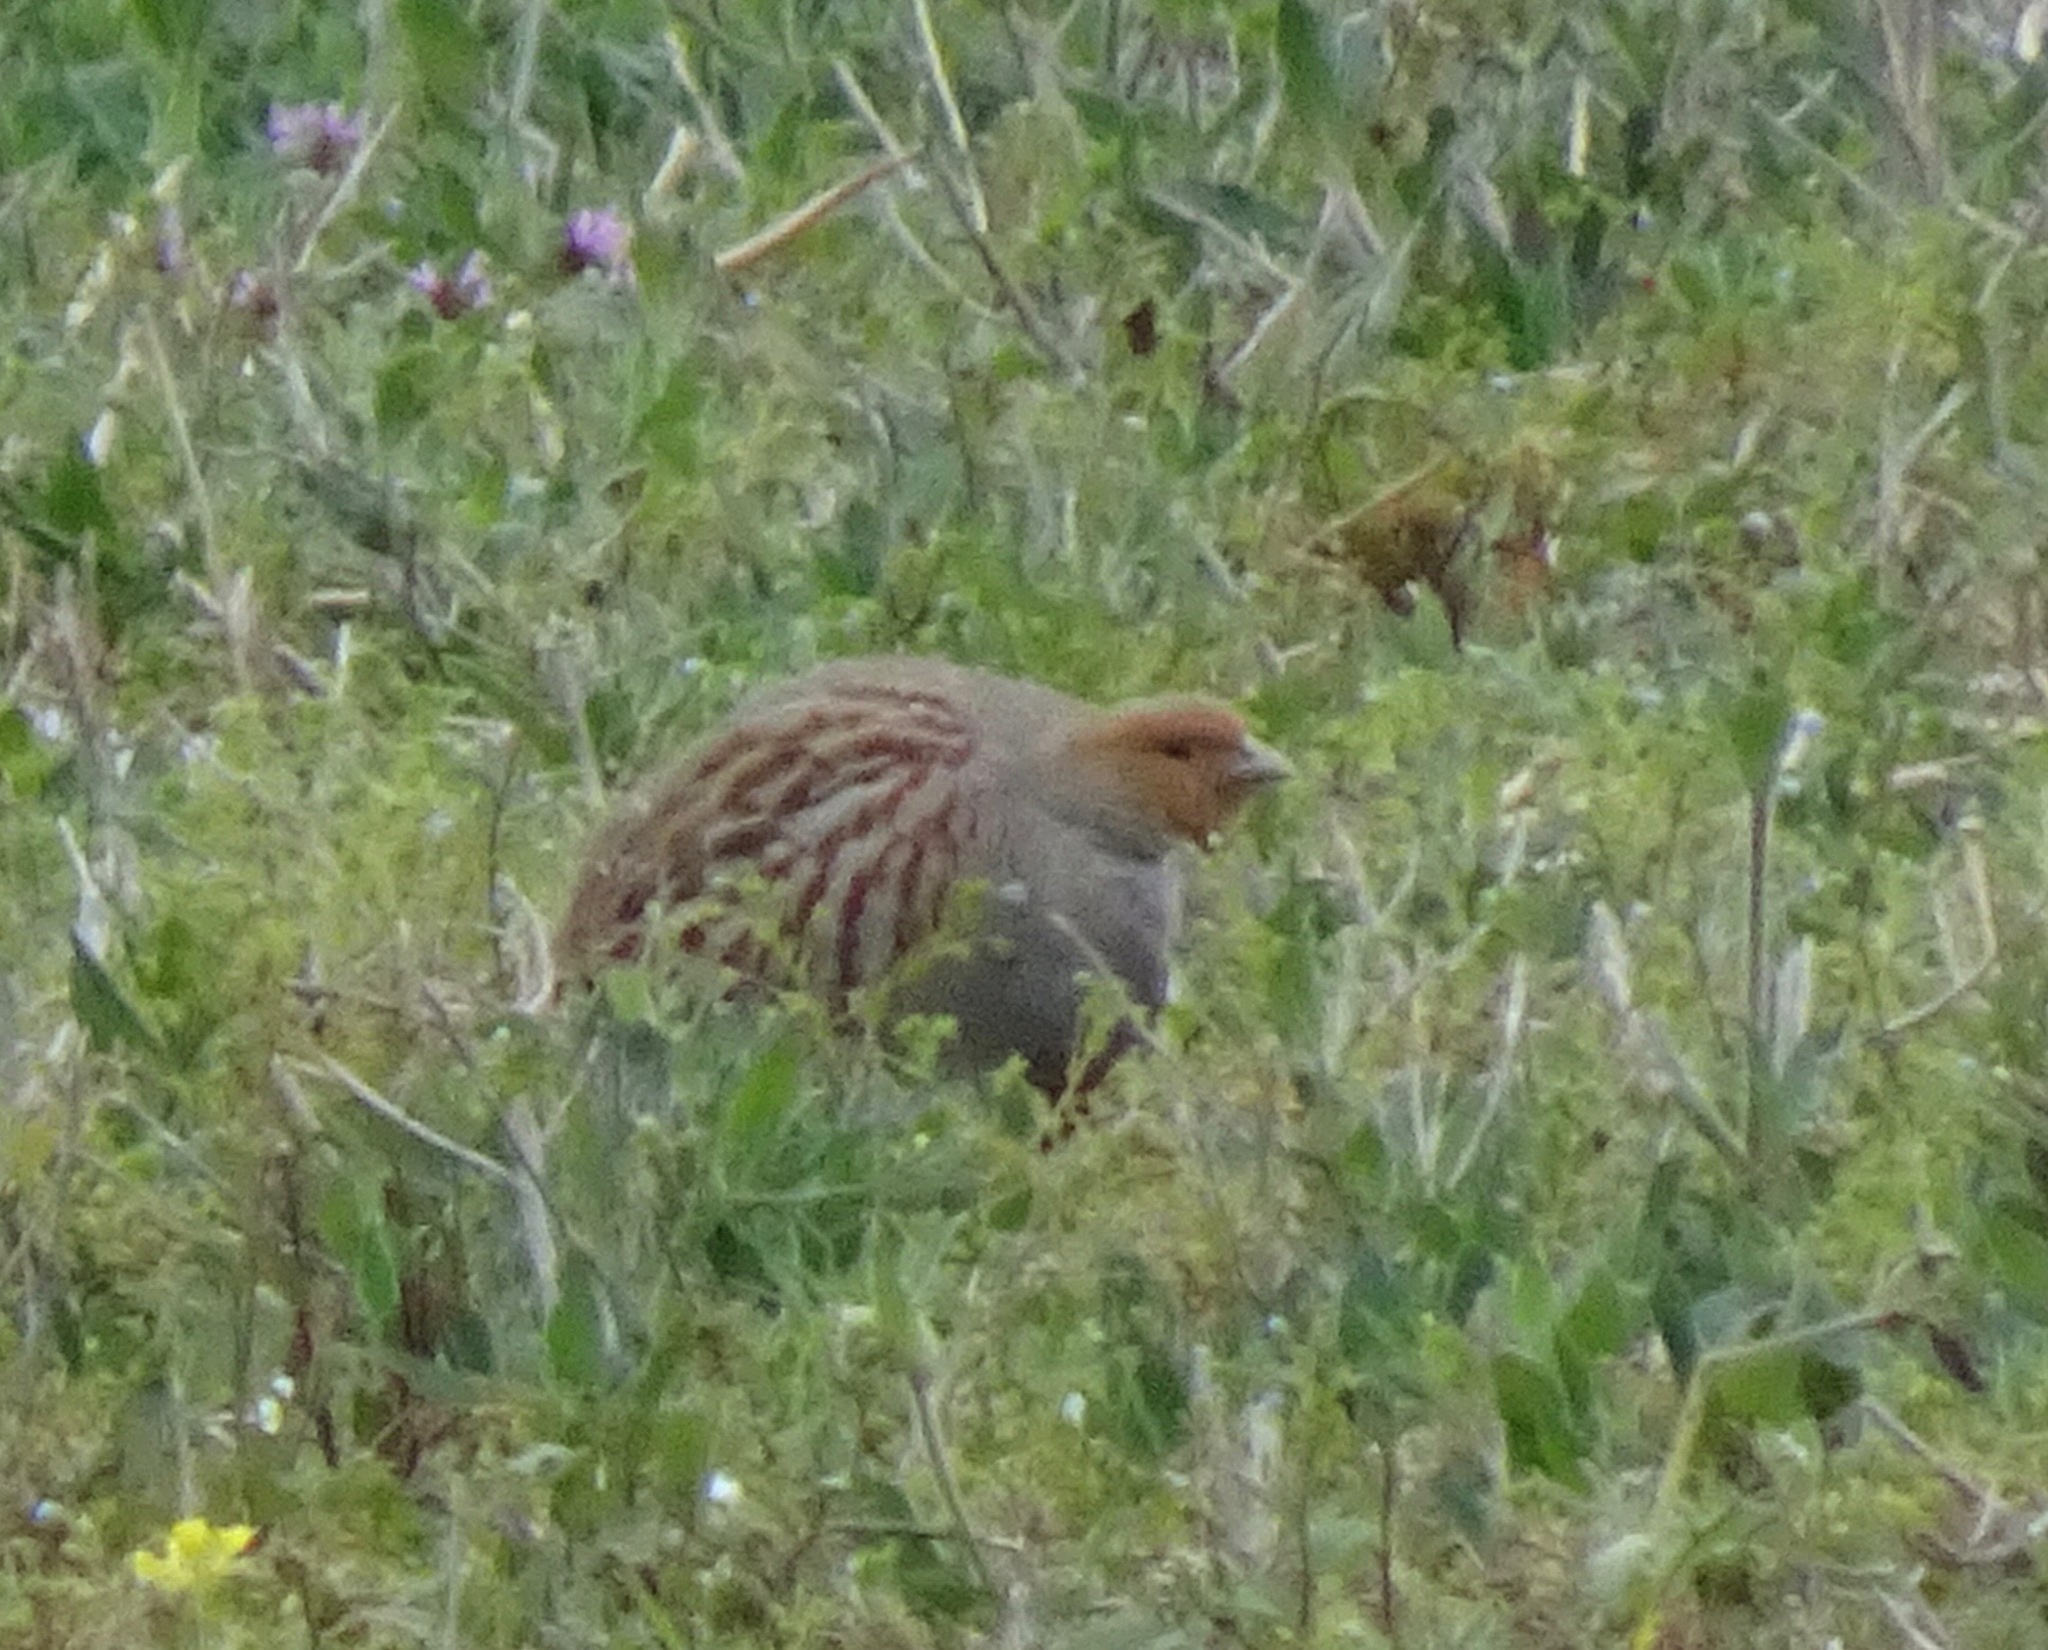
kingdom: Animalia
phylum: Chordata
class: Aves
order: Galliformes
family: Phasianidae
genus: Perdix
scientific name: Perdix perdix
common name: Grey partridge
